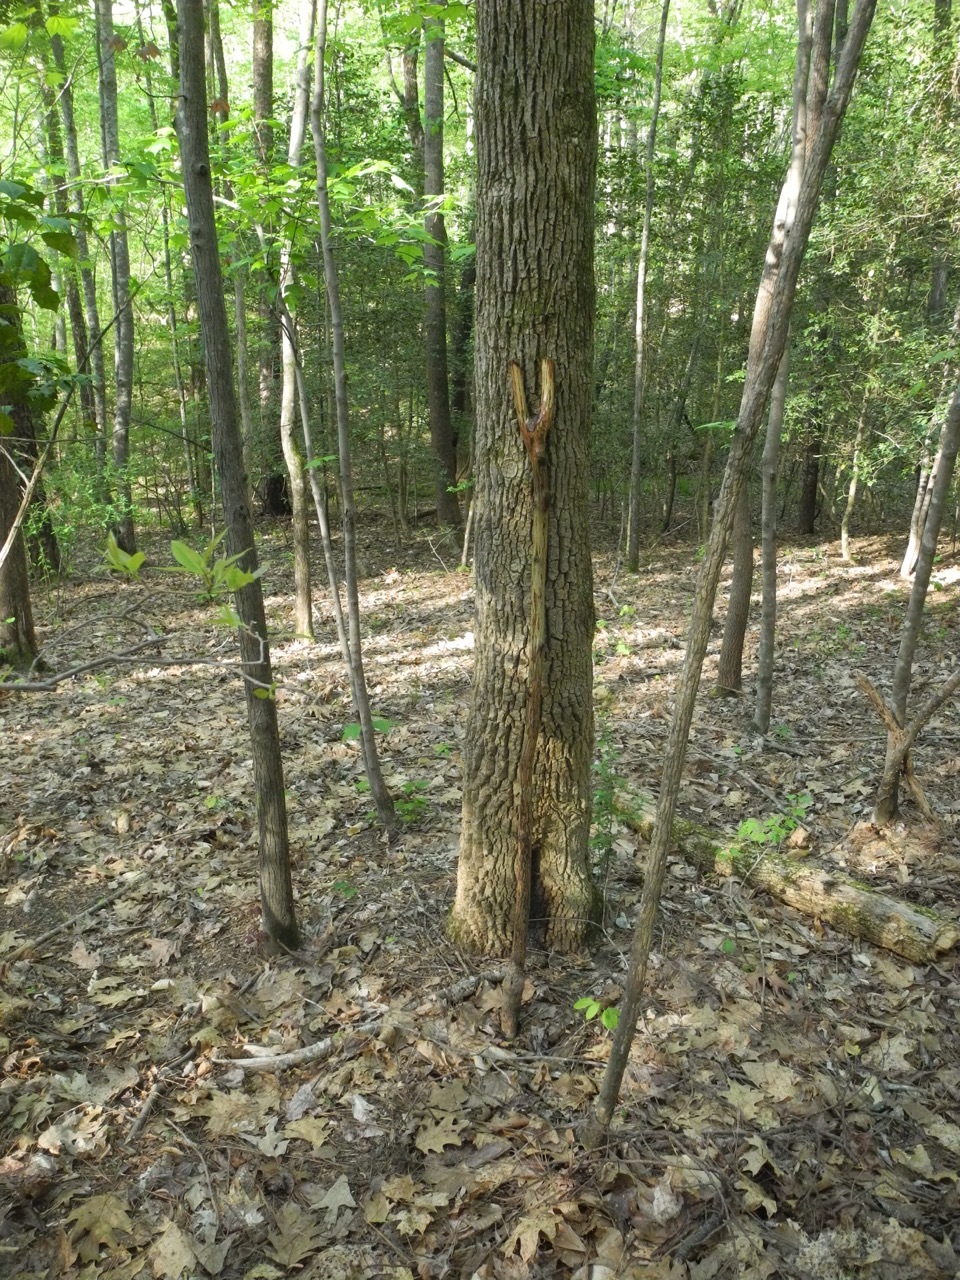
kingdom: Plantae
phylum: Tracheophyta
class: Magnoliopsida
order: Lamiales
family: Oleaceae
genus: Fraxinus
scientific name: Fraxinus pennsylvanica
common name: Green ash
